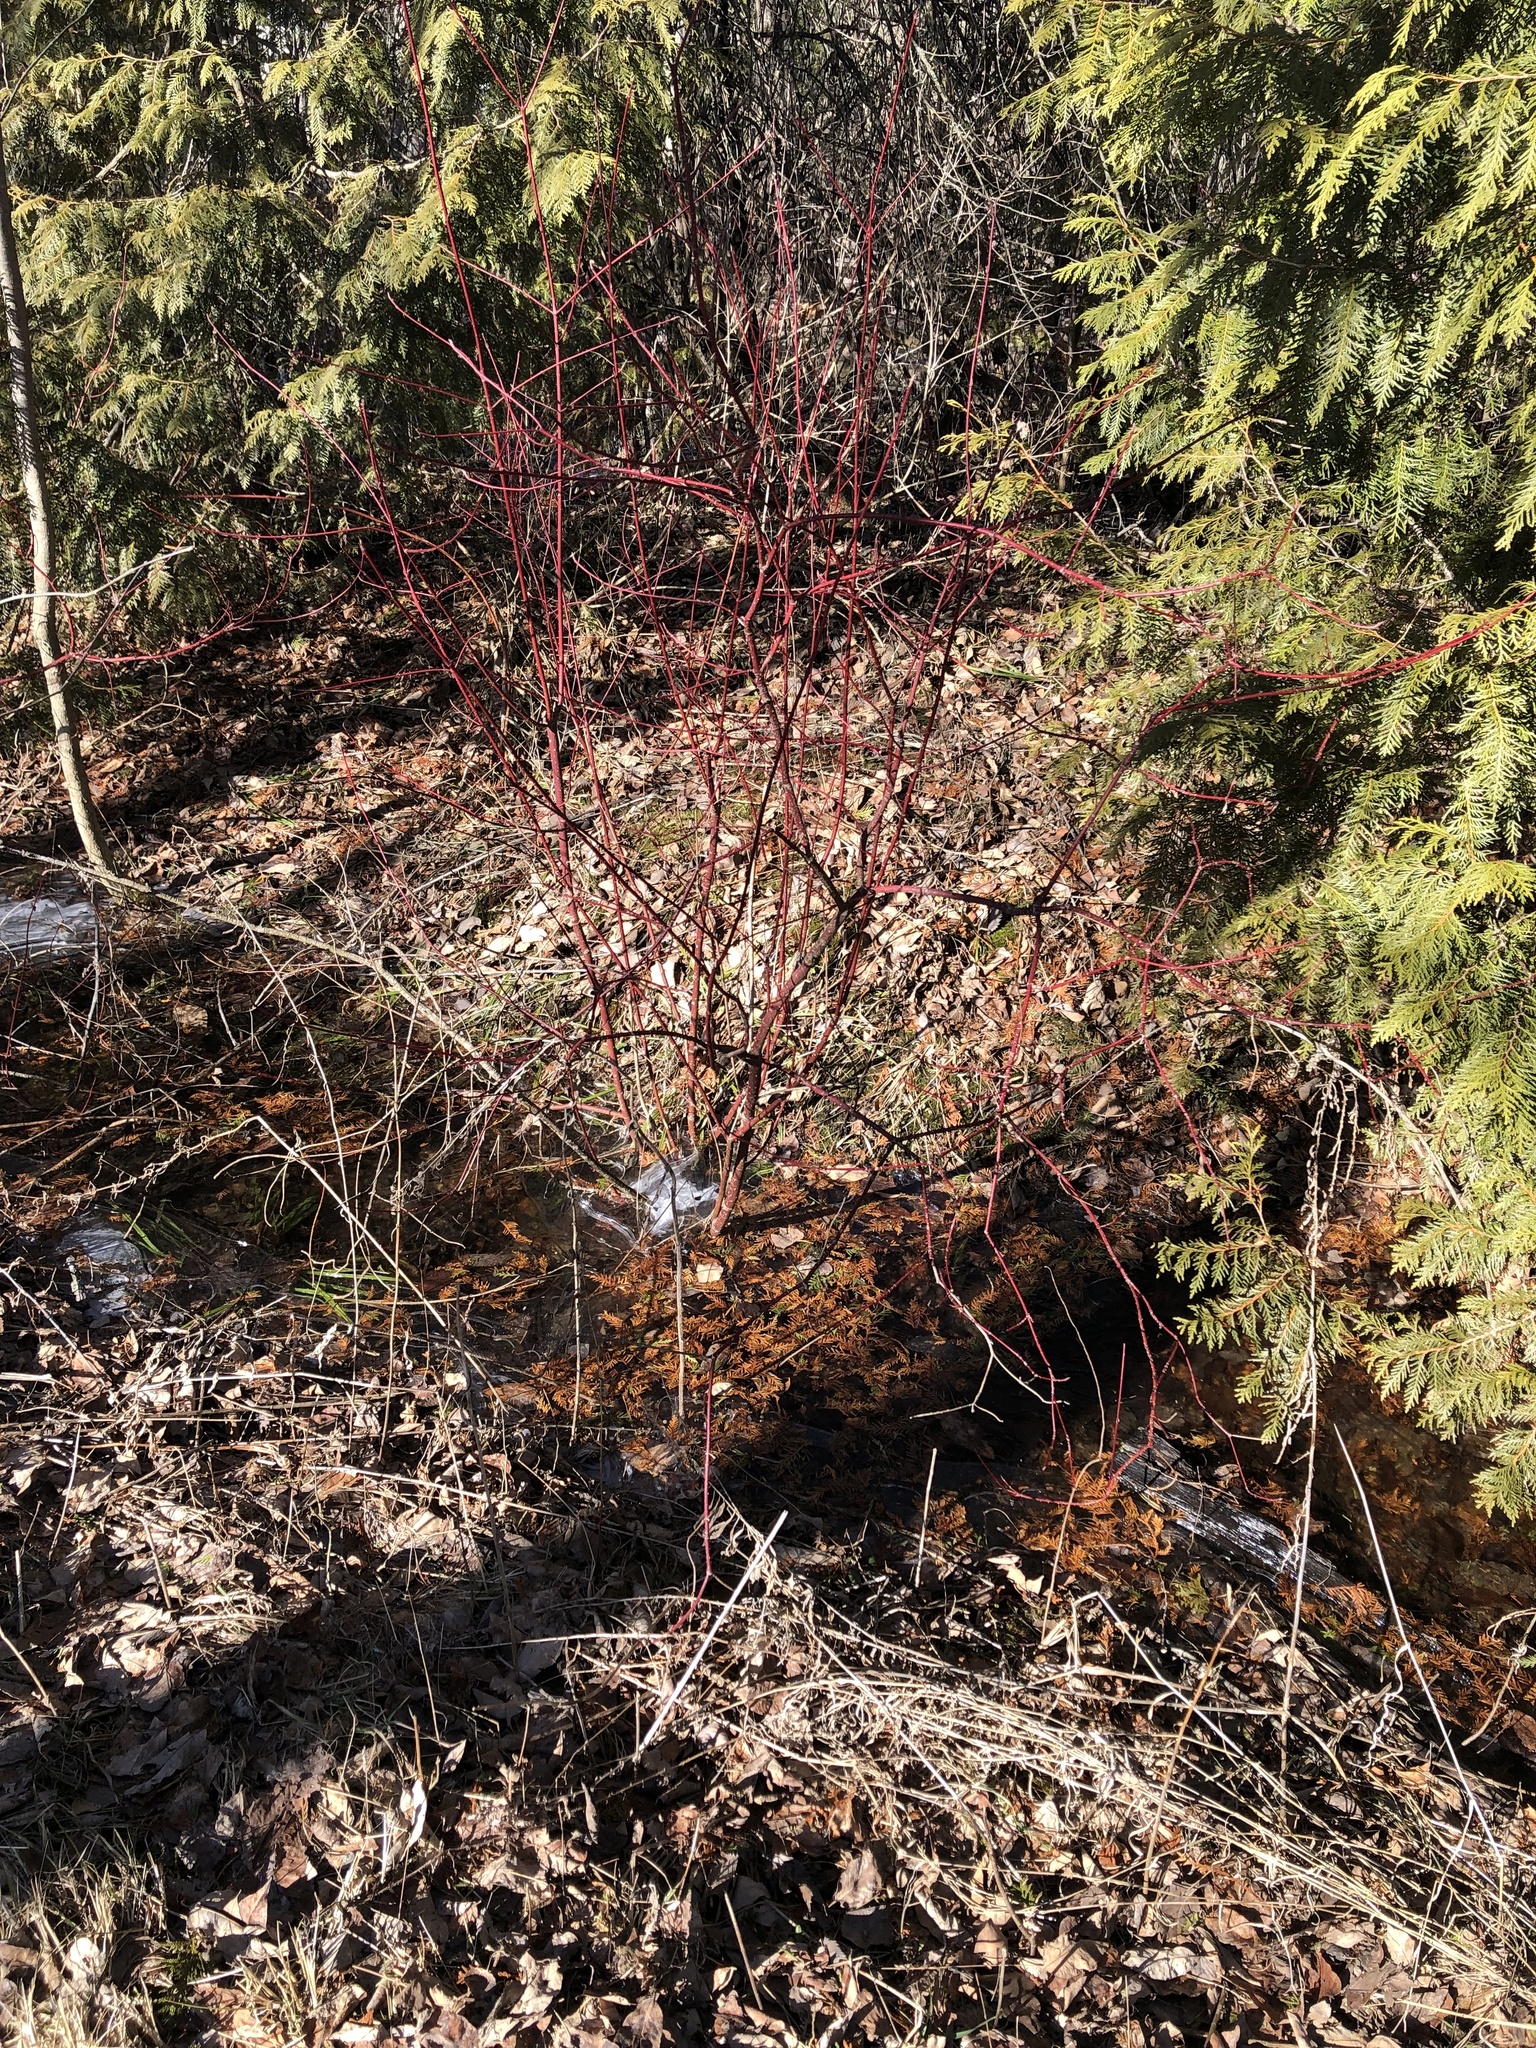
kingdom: Plantae
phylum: Tracheophyta
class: Magnoliopsida
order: Cornales
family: Cornaceae
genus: Cornus
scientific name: Cornus sericea
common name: Red-osier dogwood
